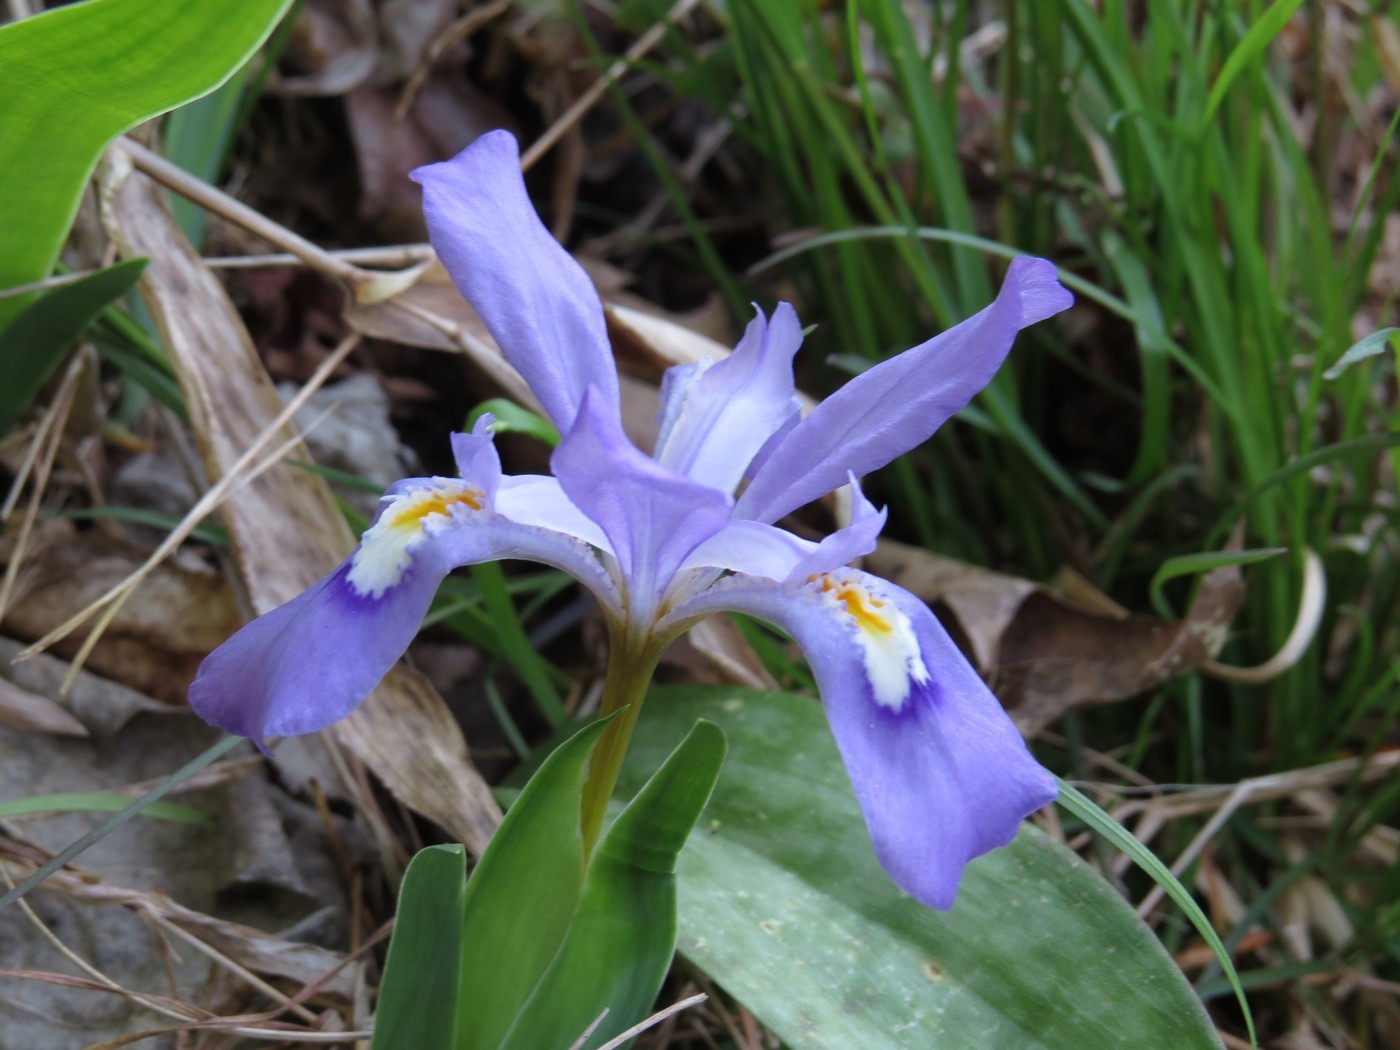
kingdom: Plantae
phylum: Tracheophyta
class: Liliopsida
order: Asparagales
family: Iridaceae
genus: Iris
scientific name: Iris cristata
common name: Crested iris
